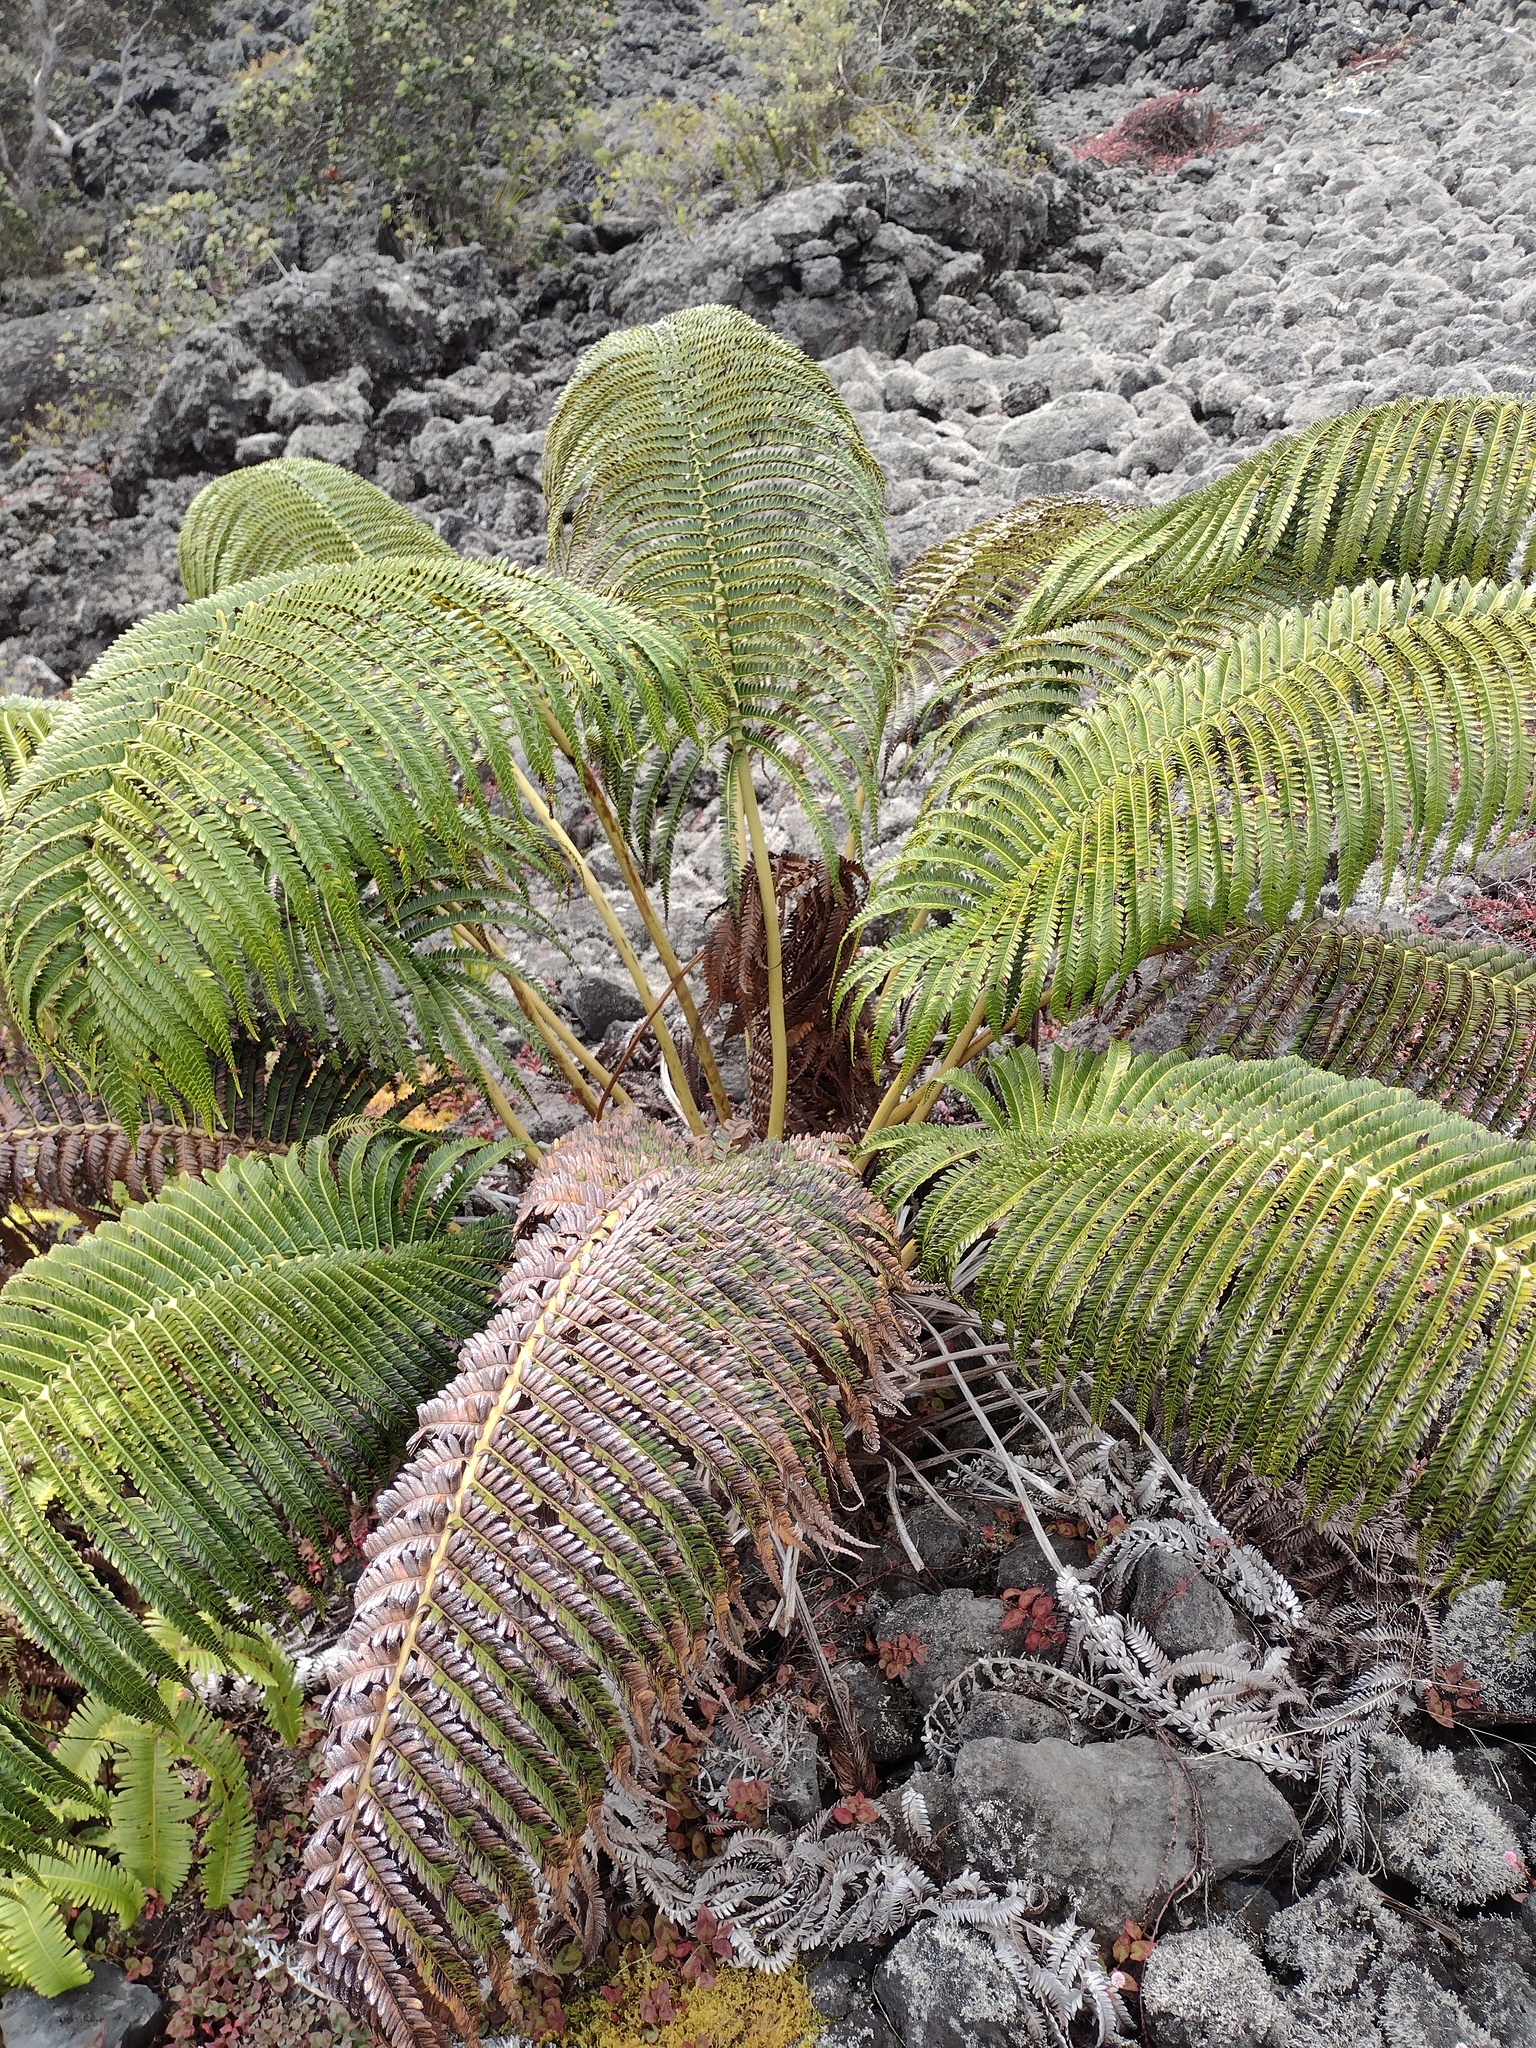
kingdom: Plantae
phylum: Tracheophyta
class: Polypodiopsida
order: Polypodiales
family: Blechnaceae
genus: Sadleria
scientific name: Sadleria cyatheoides
